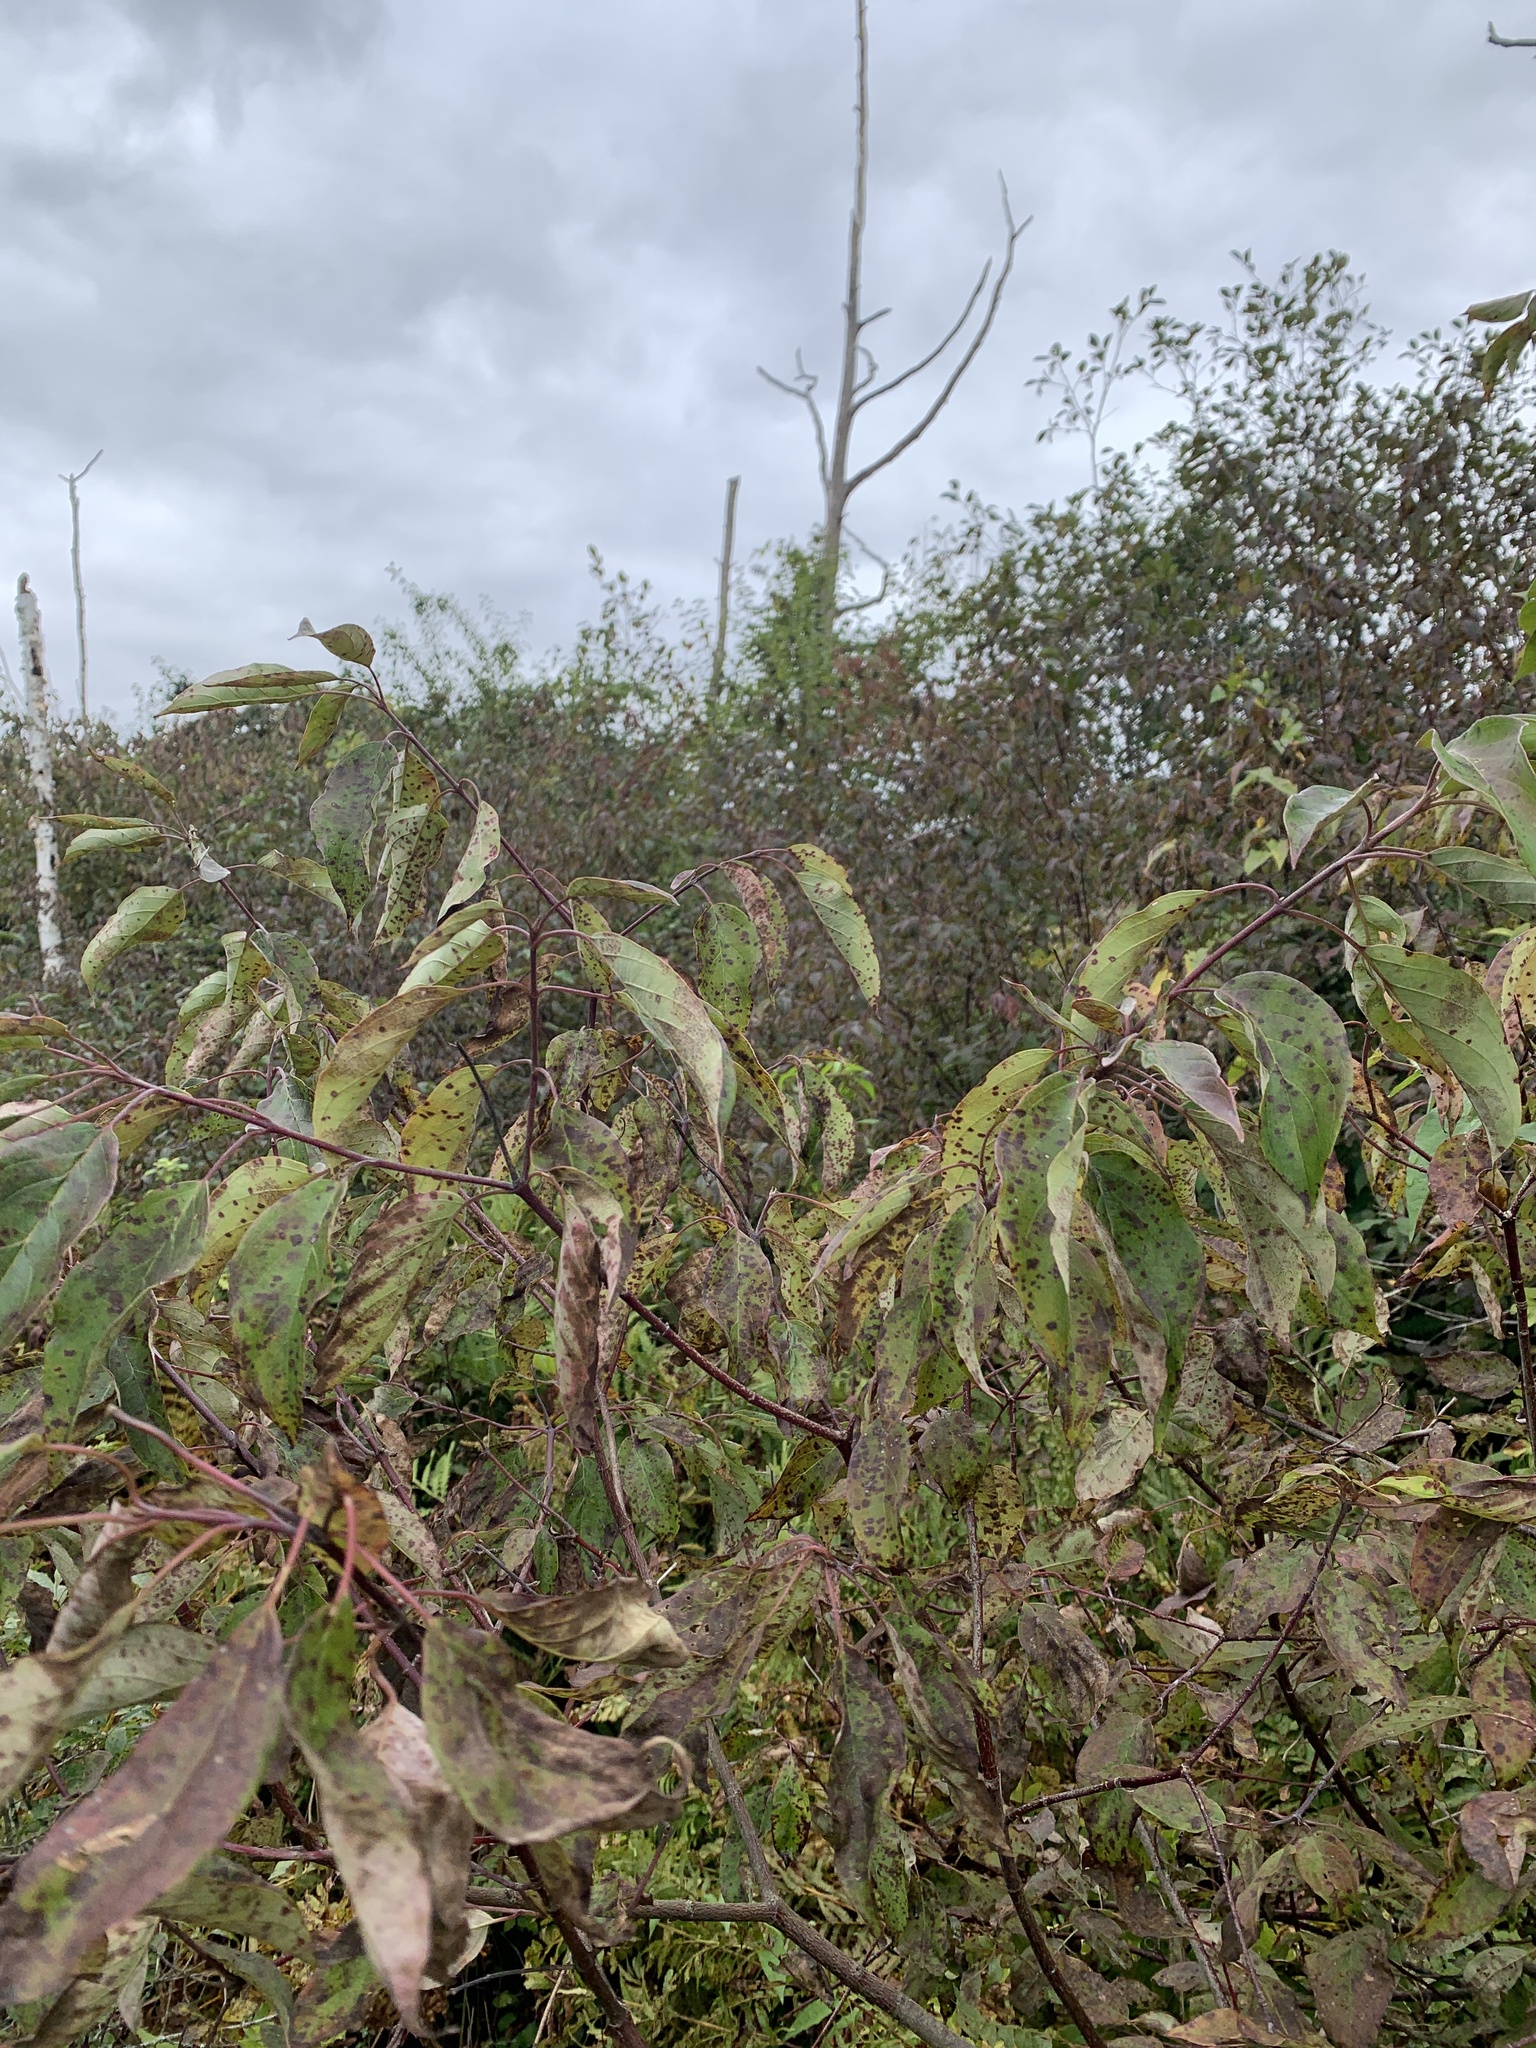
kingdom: Plantae
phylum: Tracheophyta
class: Magnoliopsida
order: Cornales
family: Cornaceae
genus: Cornus
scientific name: Cornus amomum
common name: Silky dogwood
